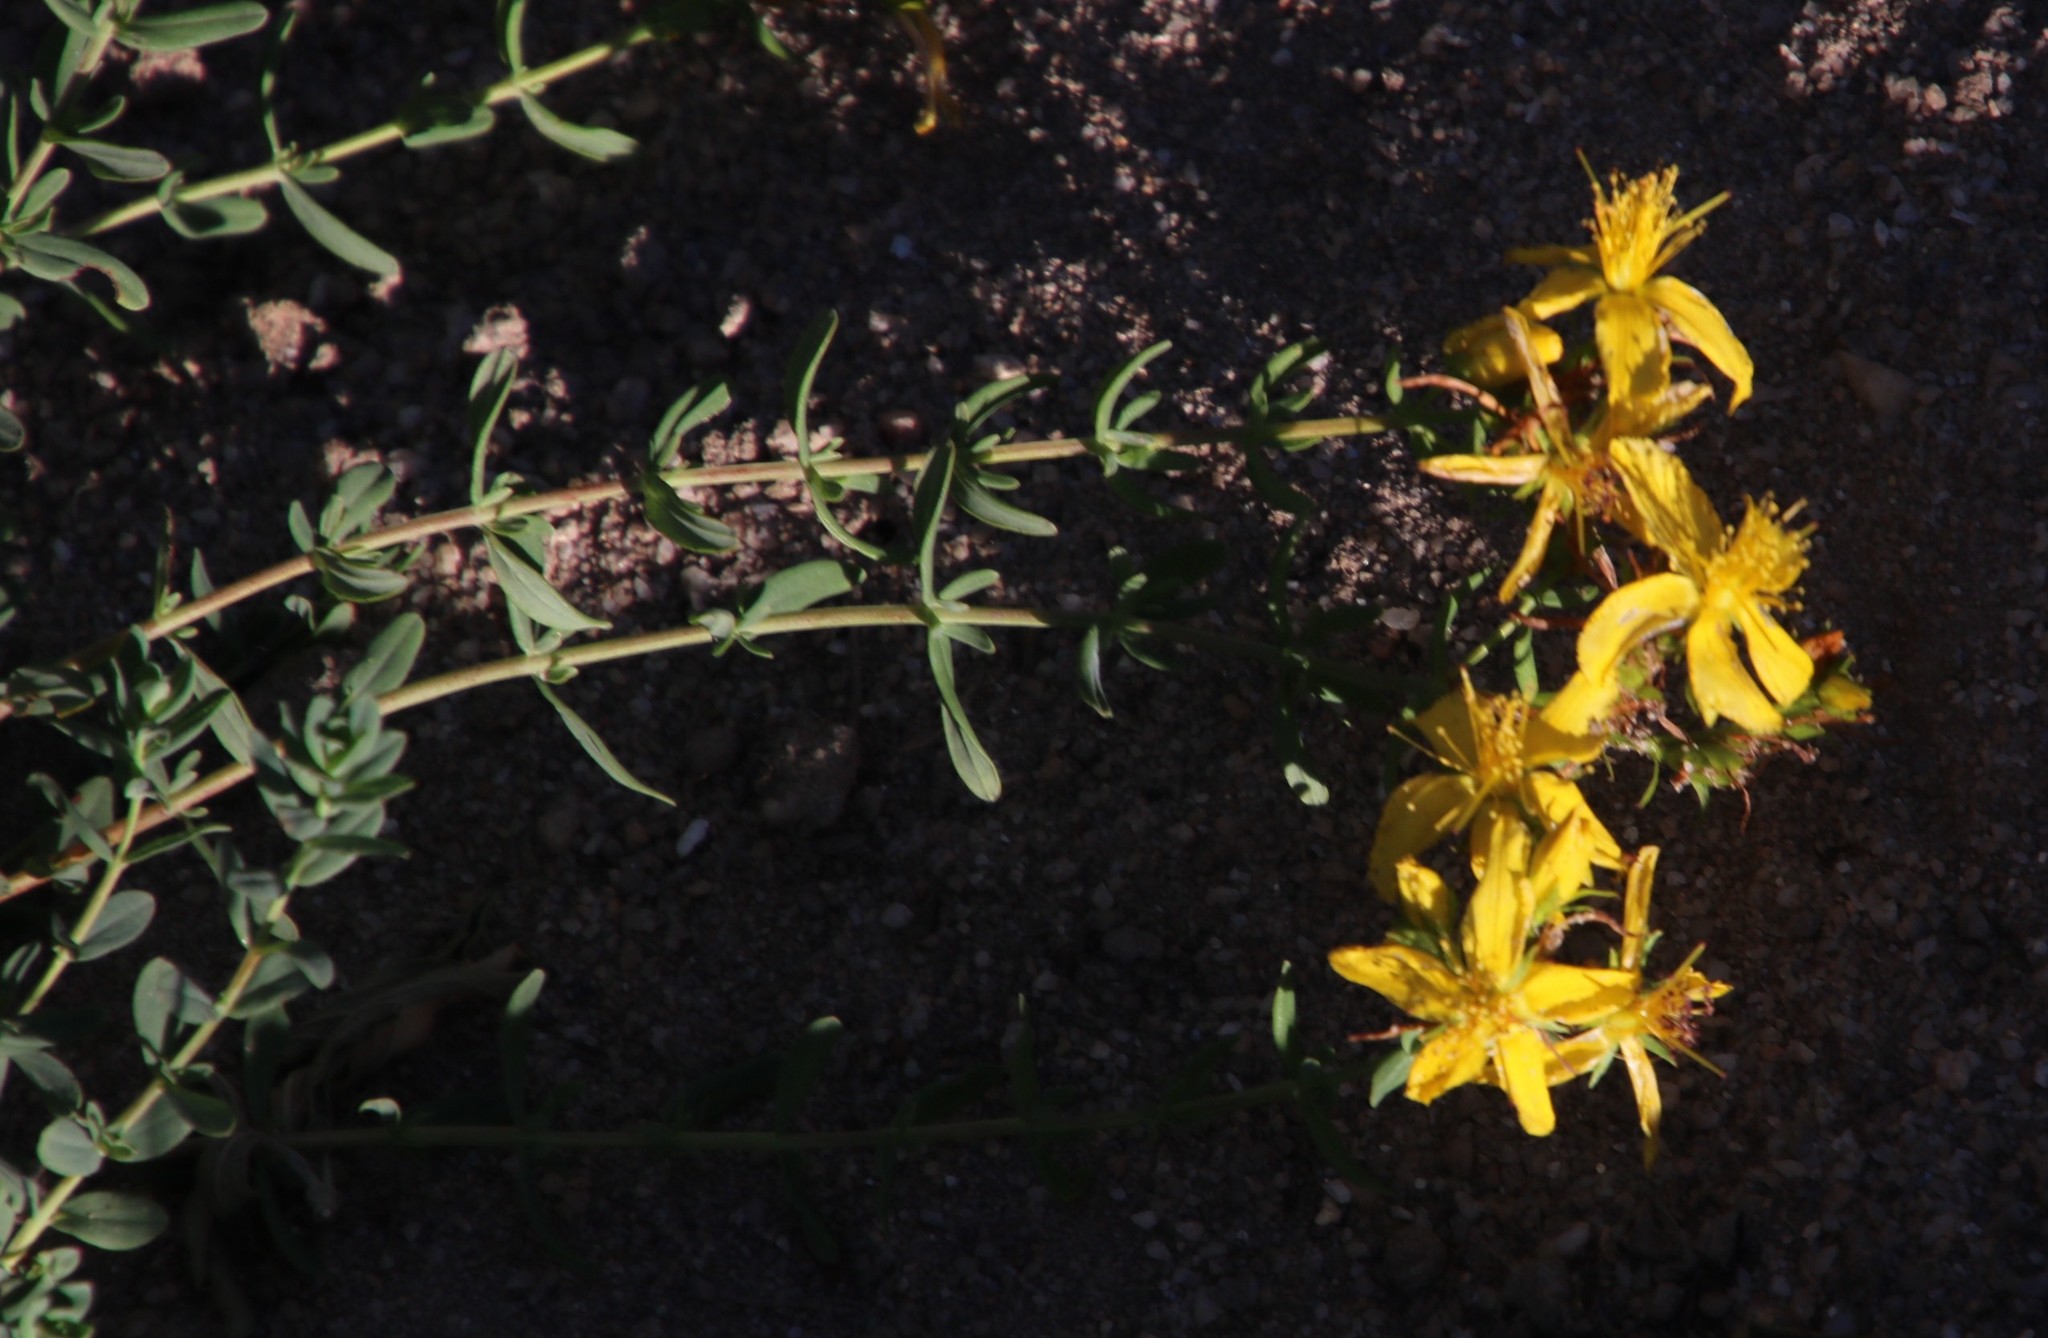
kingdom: Plantae
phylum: Tracheophyta
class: Magnoliopsida
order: Malpighiales
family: Hypericaceae
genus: Hypericum
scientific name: Hypericum perforatum
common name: Common st. johnswort
